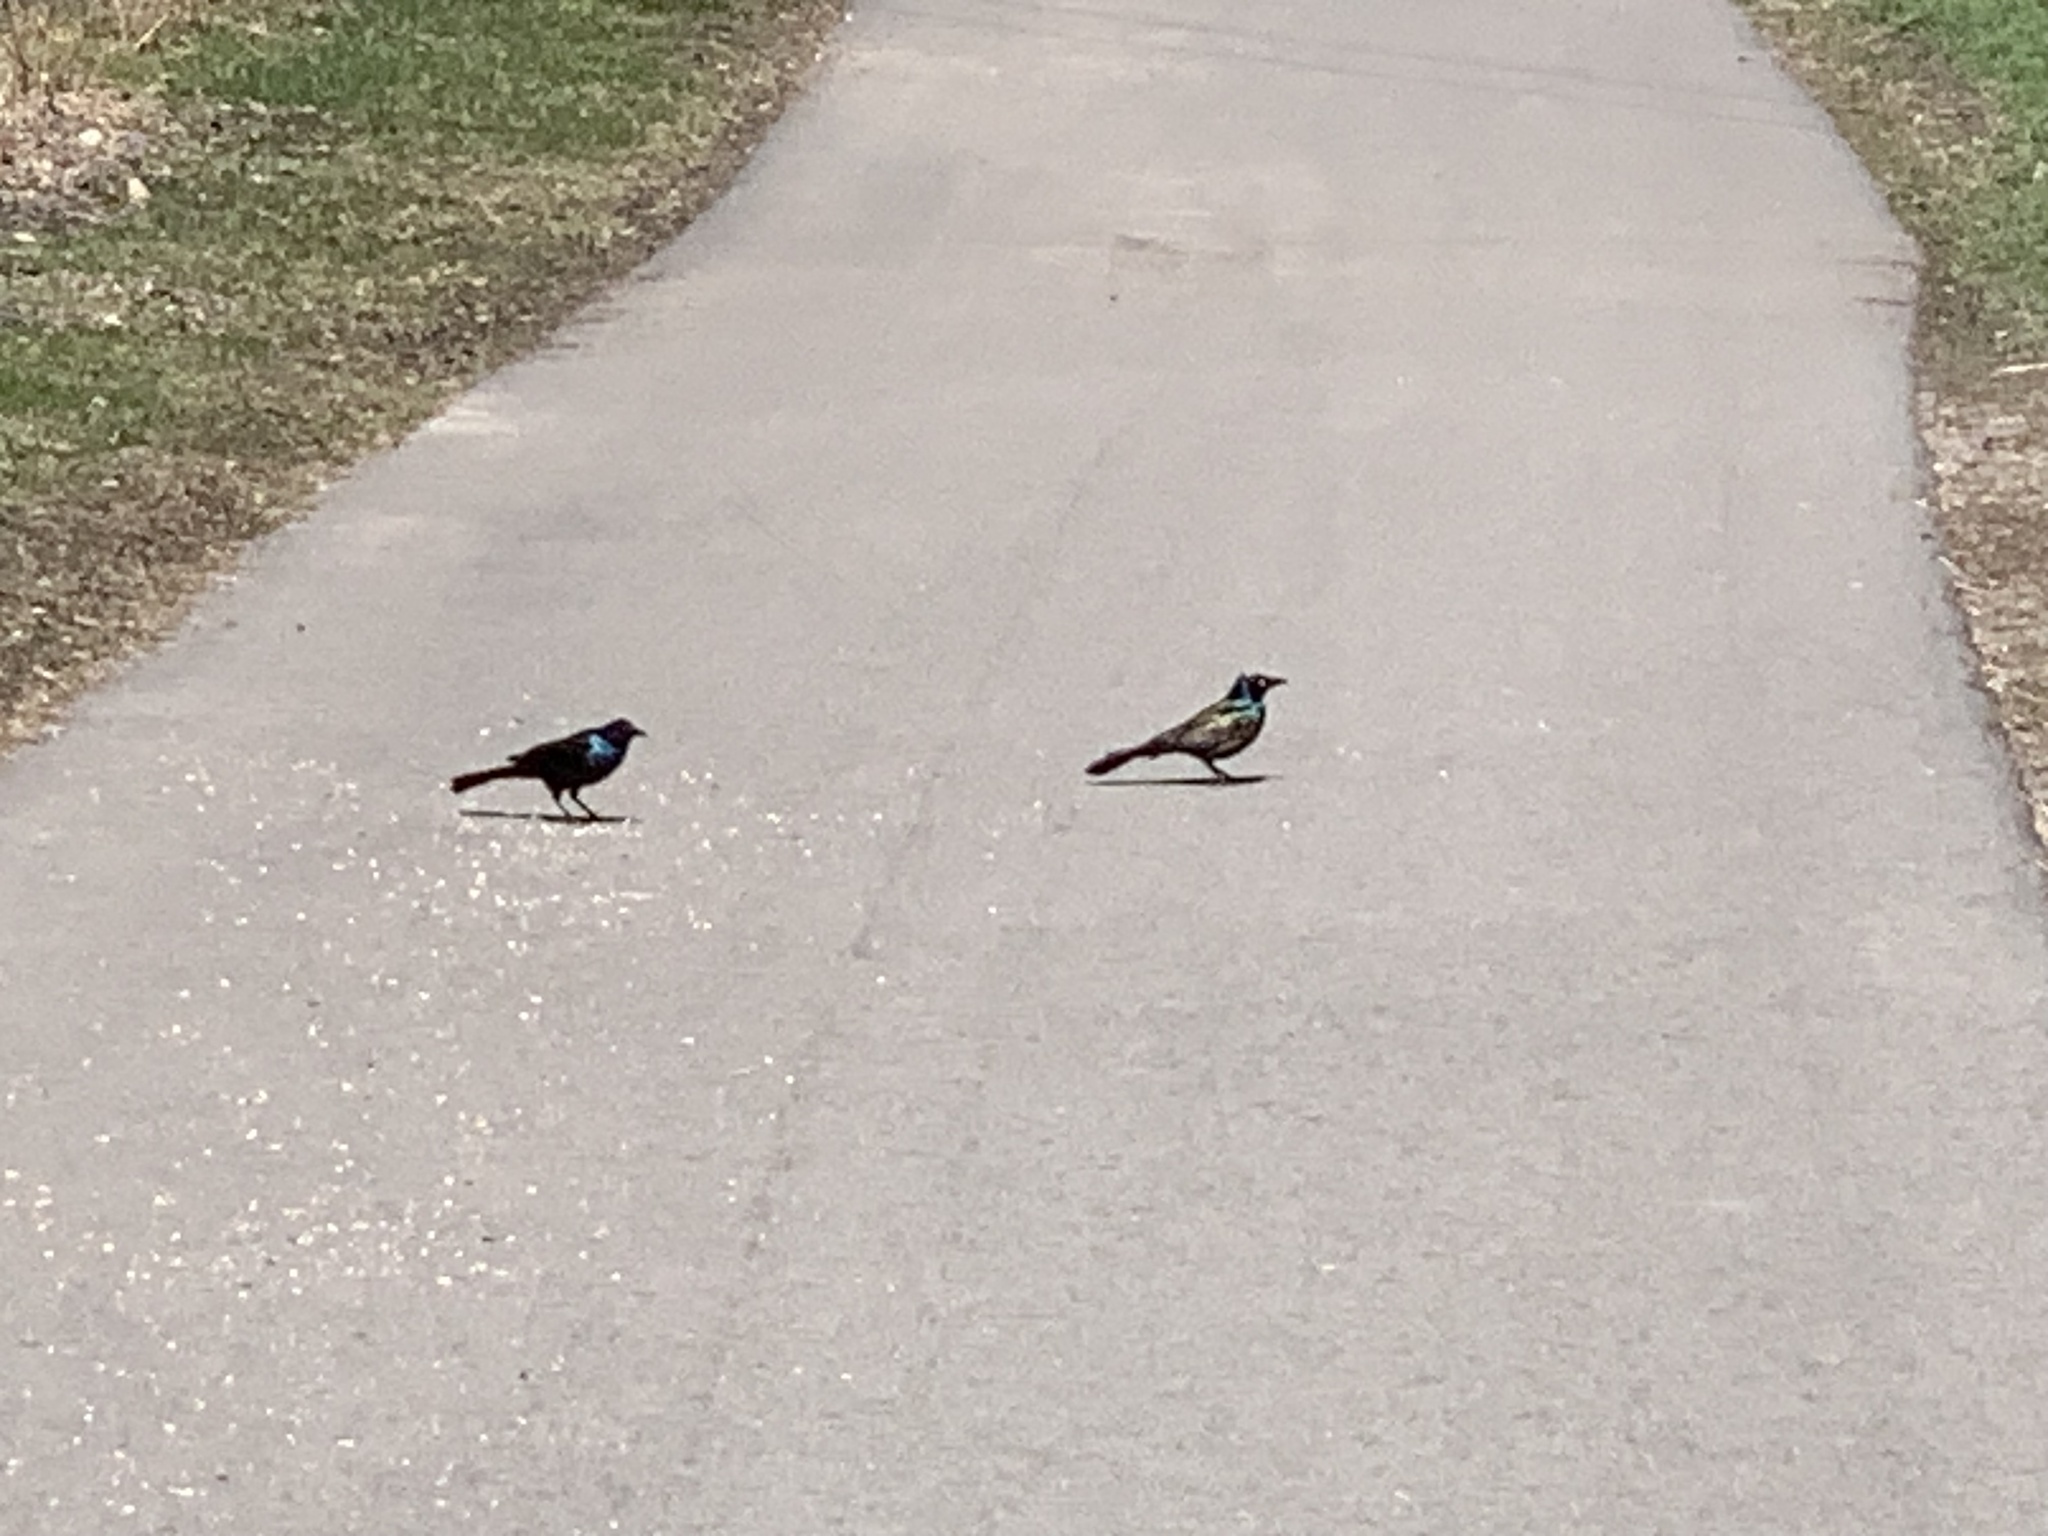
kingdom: Animalia
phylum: Chordata
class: Aves
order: Passeriformes
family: Icteridae
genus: Quiscalus
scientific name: Quiscalus quiscula
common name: Common grackle
